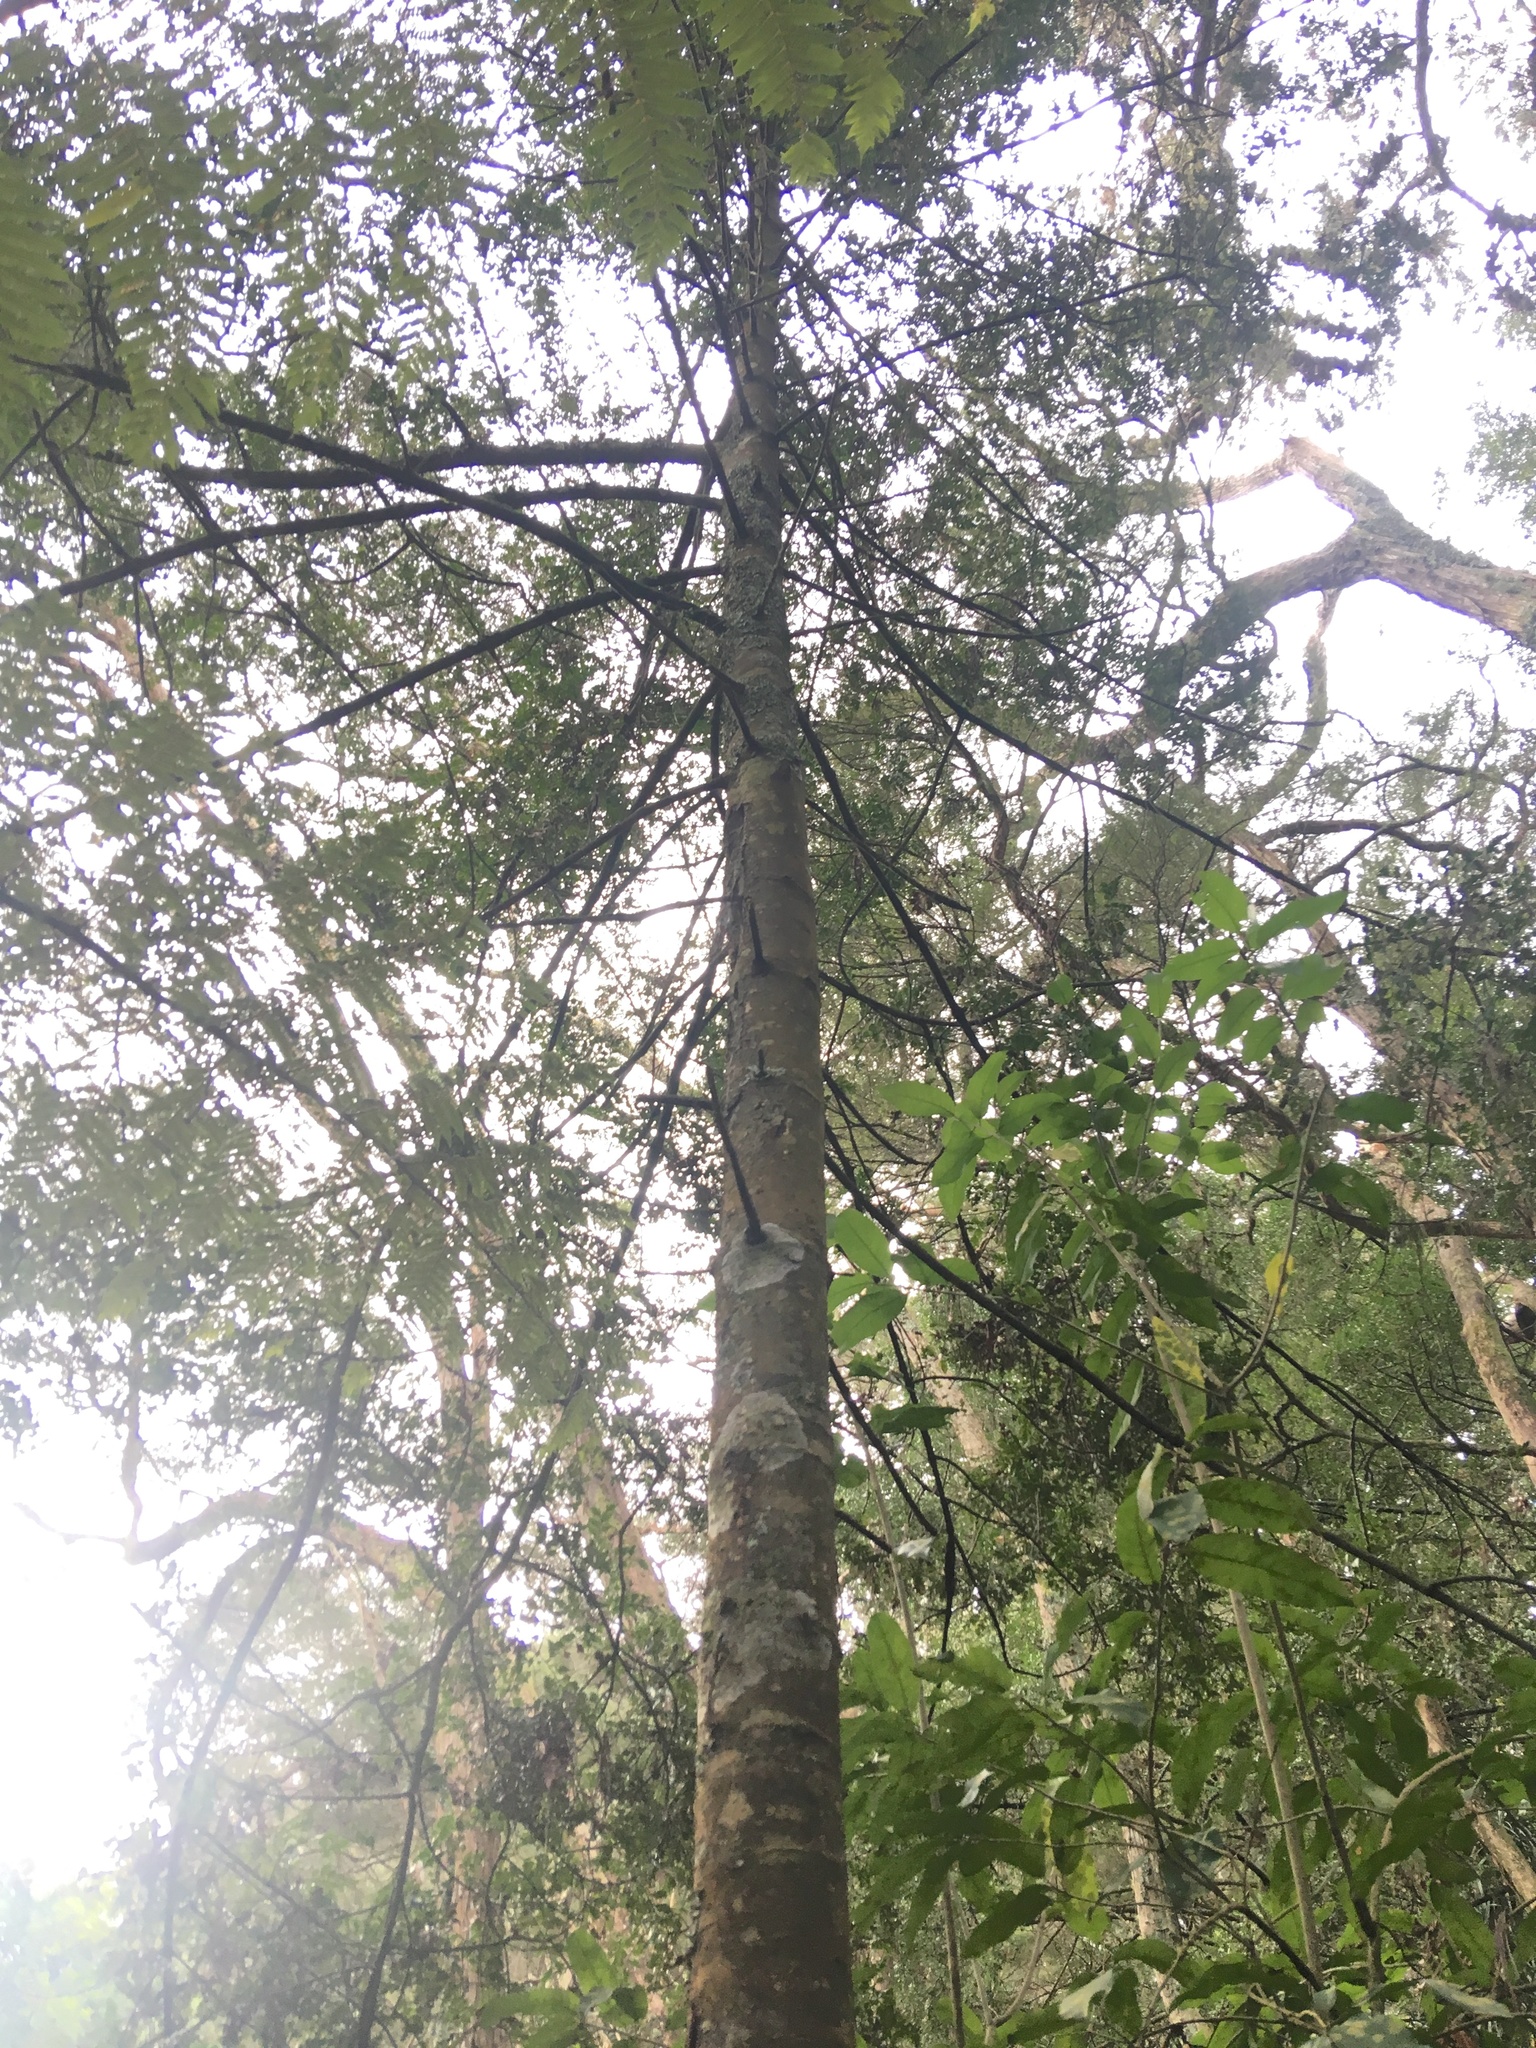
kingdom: Plantae
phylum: Tracheophyta
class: Pinopsida
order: Pinales
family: Phyllocladaceae
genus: Phyllocladus
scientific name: Phyllocladus trichomanoides
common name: Celery pine
